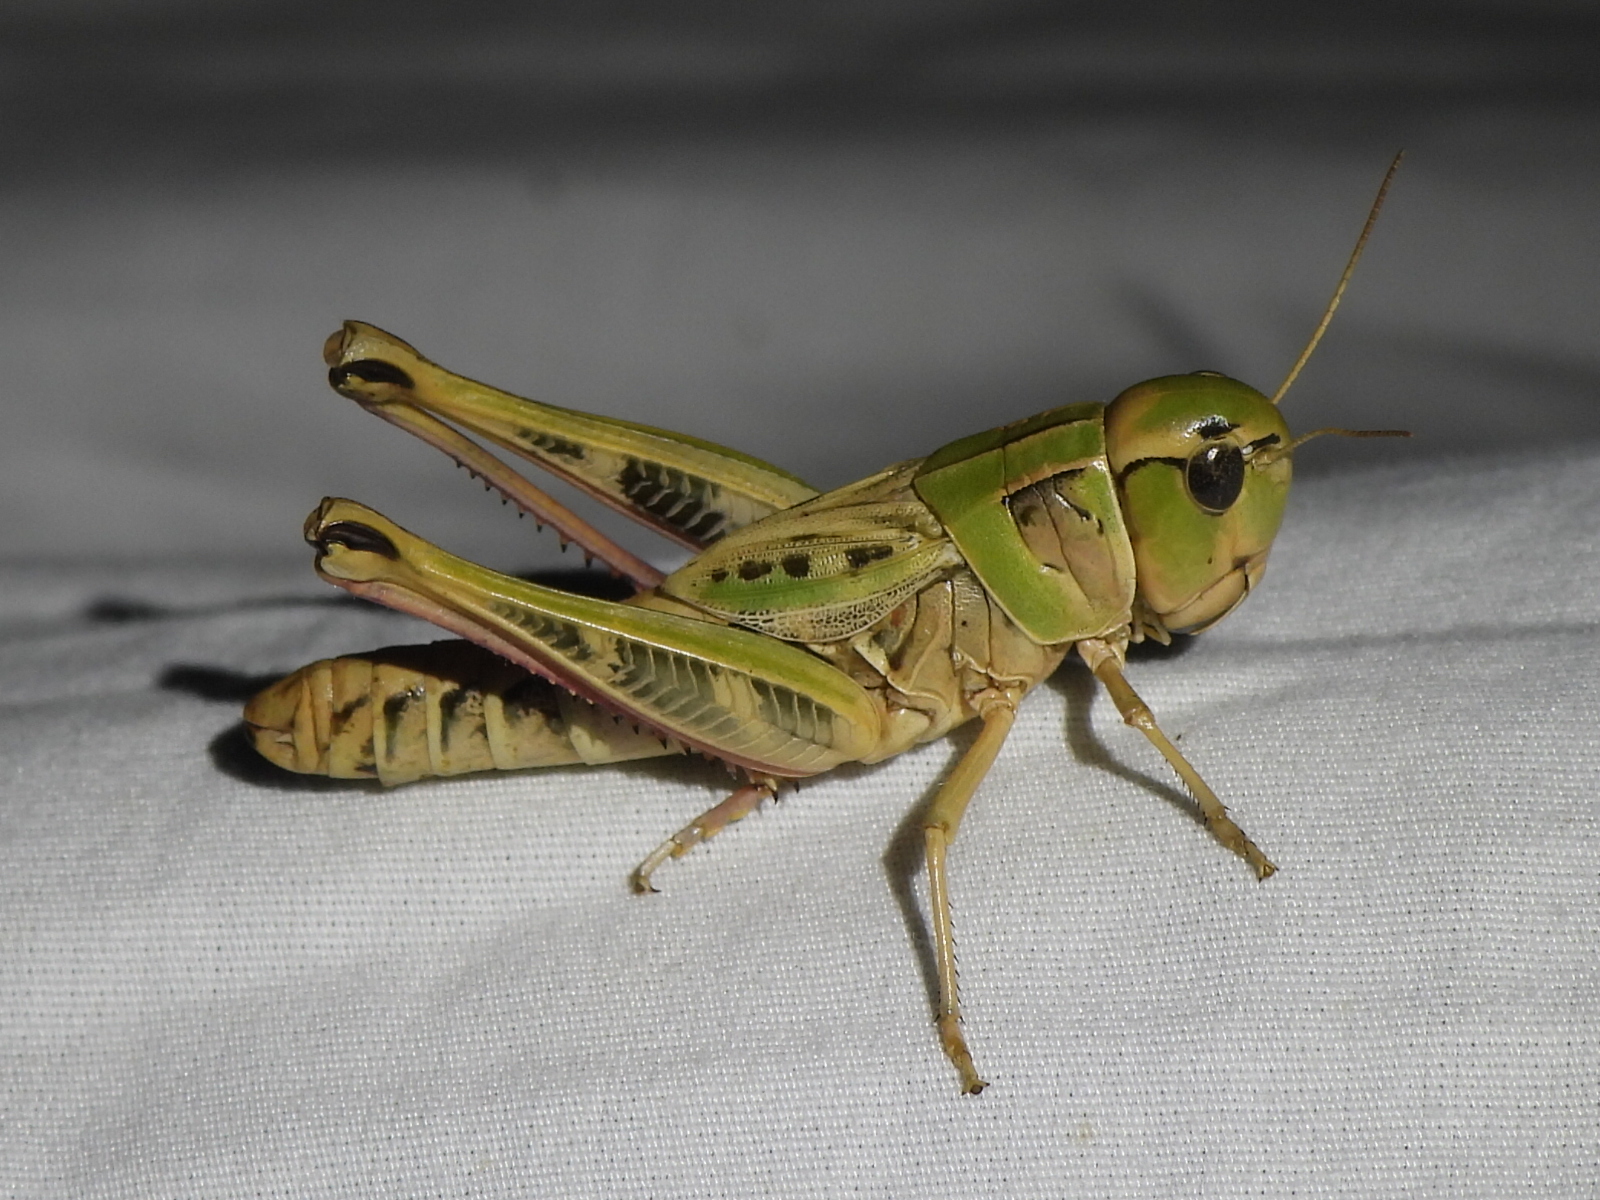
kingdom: Animalia
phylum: Arthropoda
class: Insecta
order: Orthoptera
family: Acrididae
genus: Boopedon
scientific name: Boopedon gracile
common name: Graceful range grasshopper
